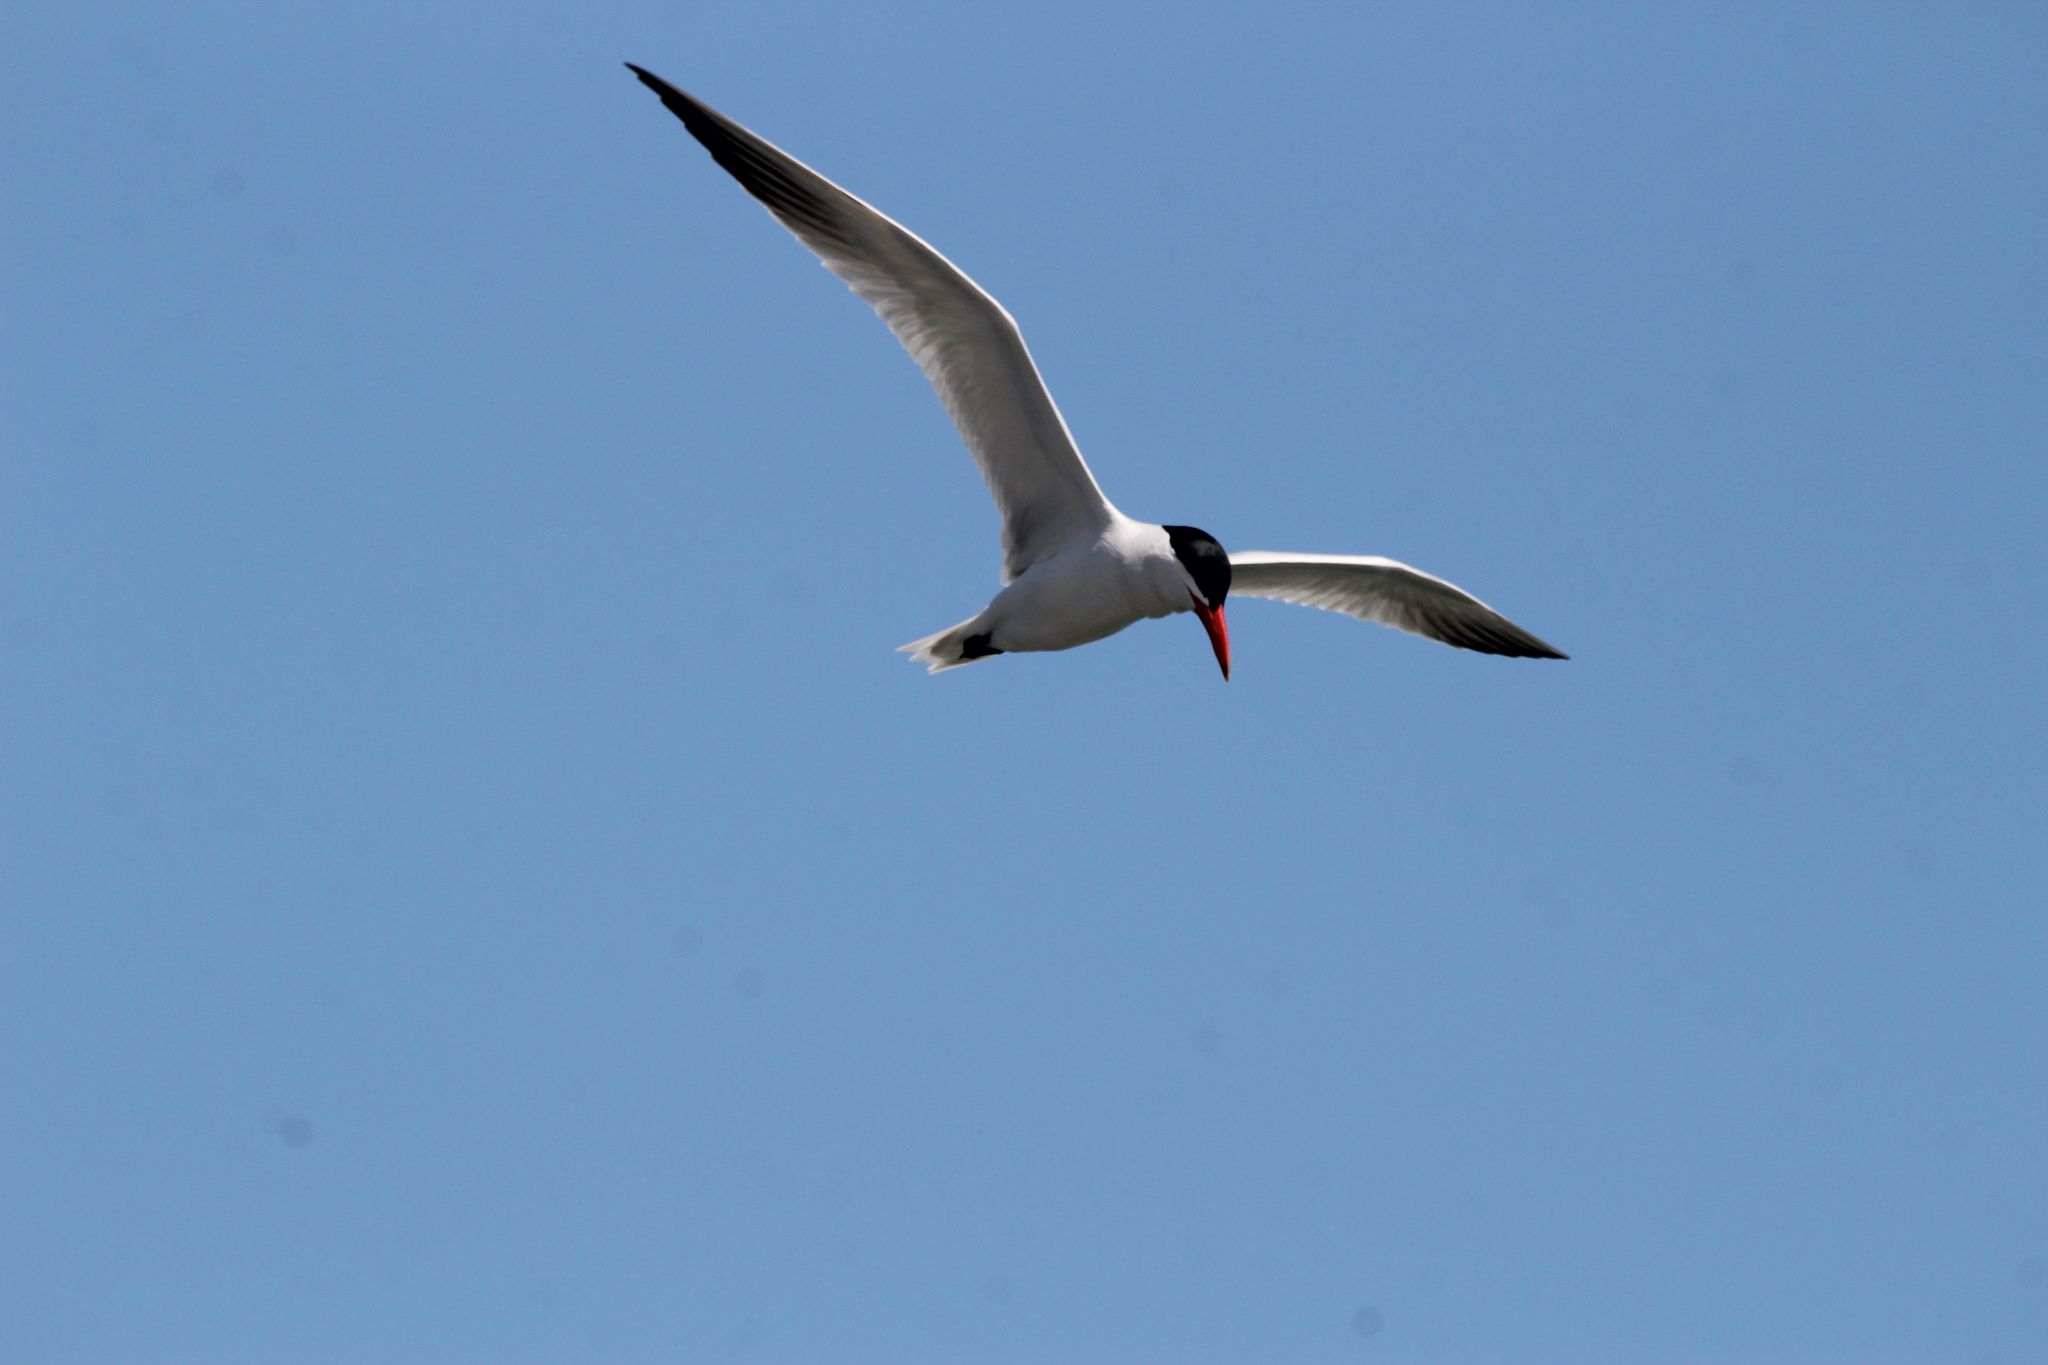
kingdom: Animalia
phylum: Chordata
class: Aves
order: Charadriiformes
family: Laridae
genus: Hydroprogne
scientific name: Hydroprogne caspia
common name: Caspian tern
